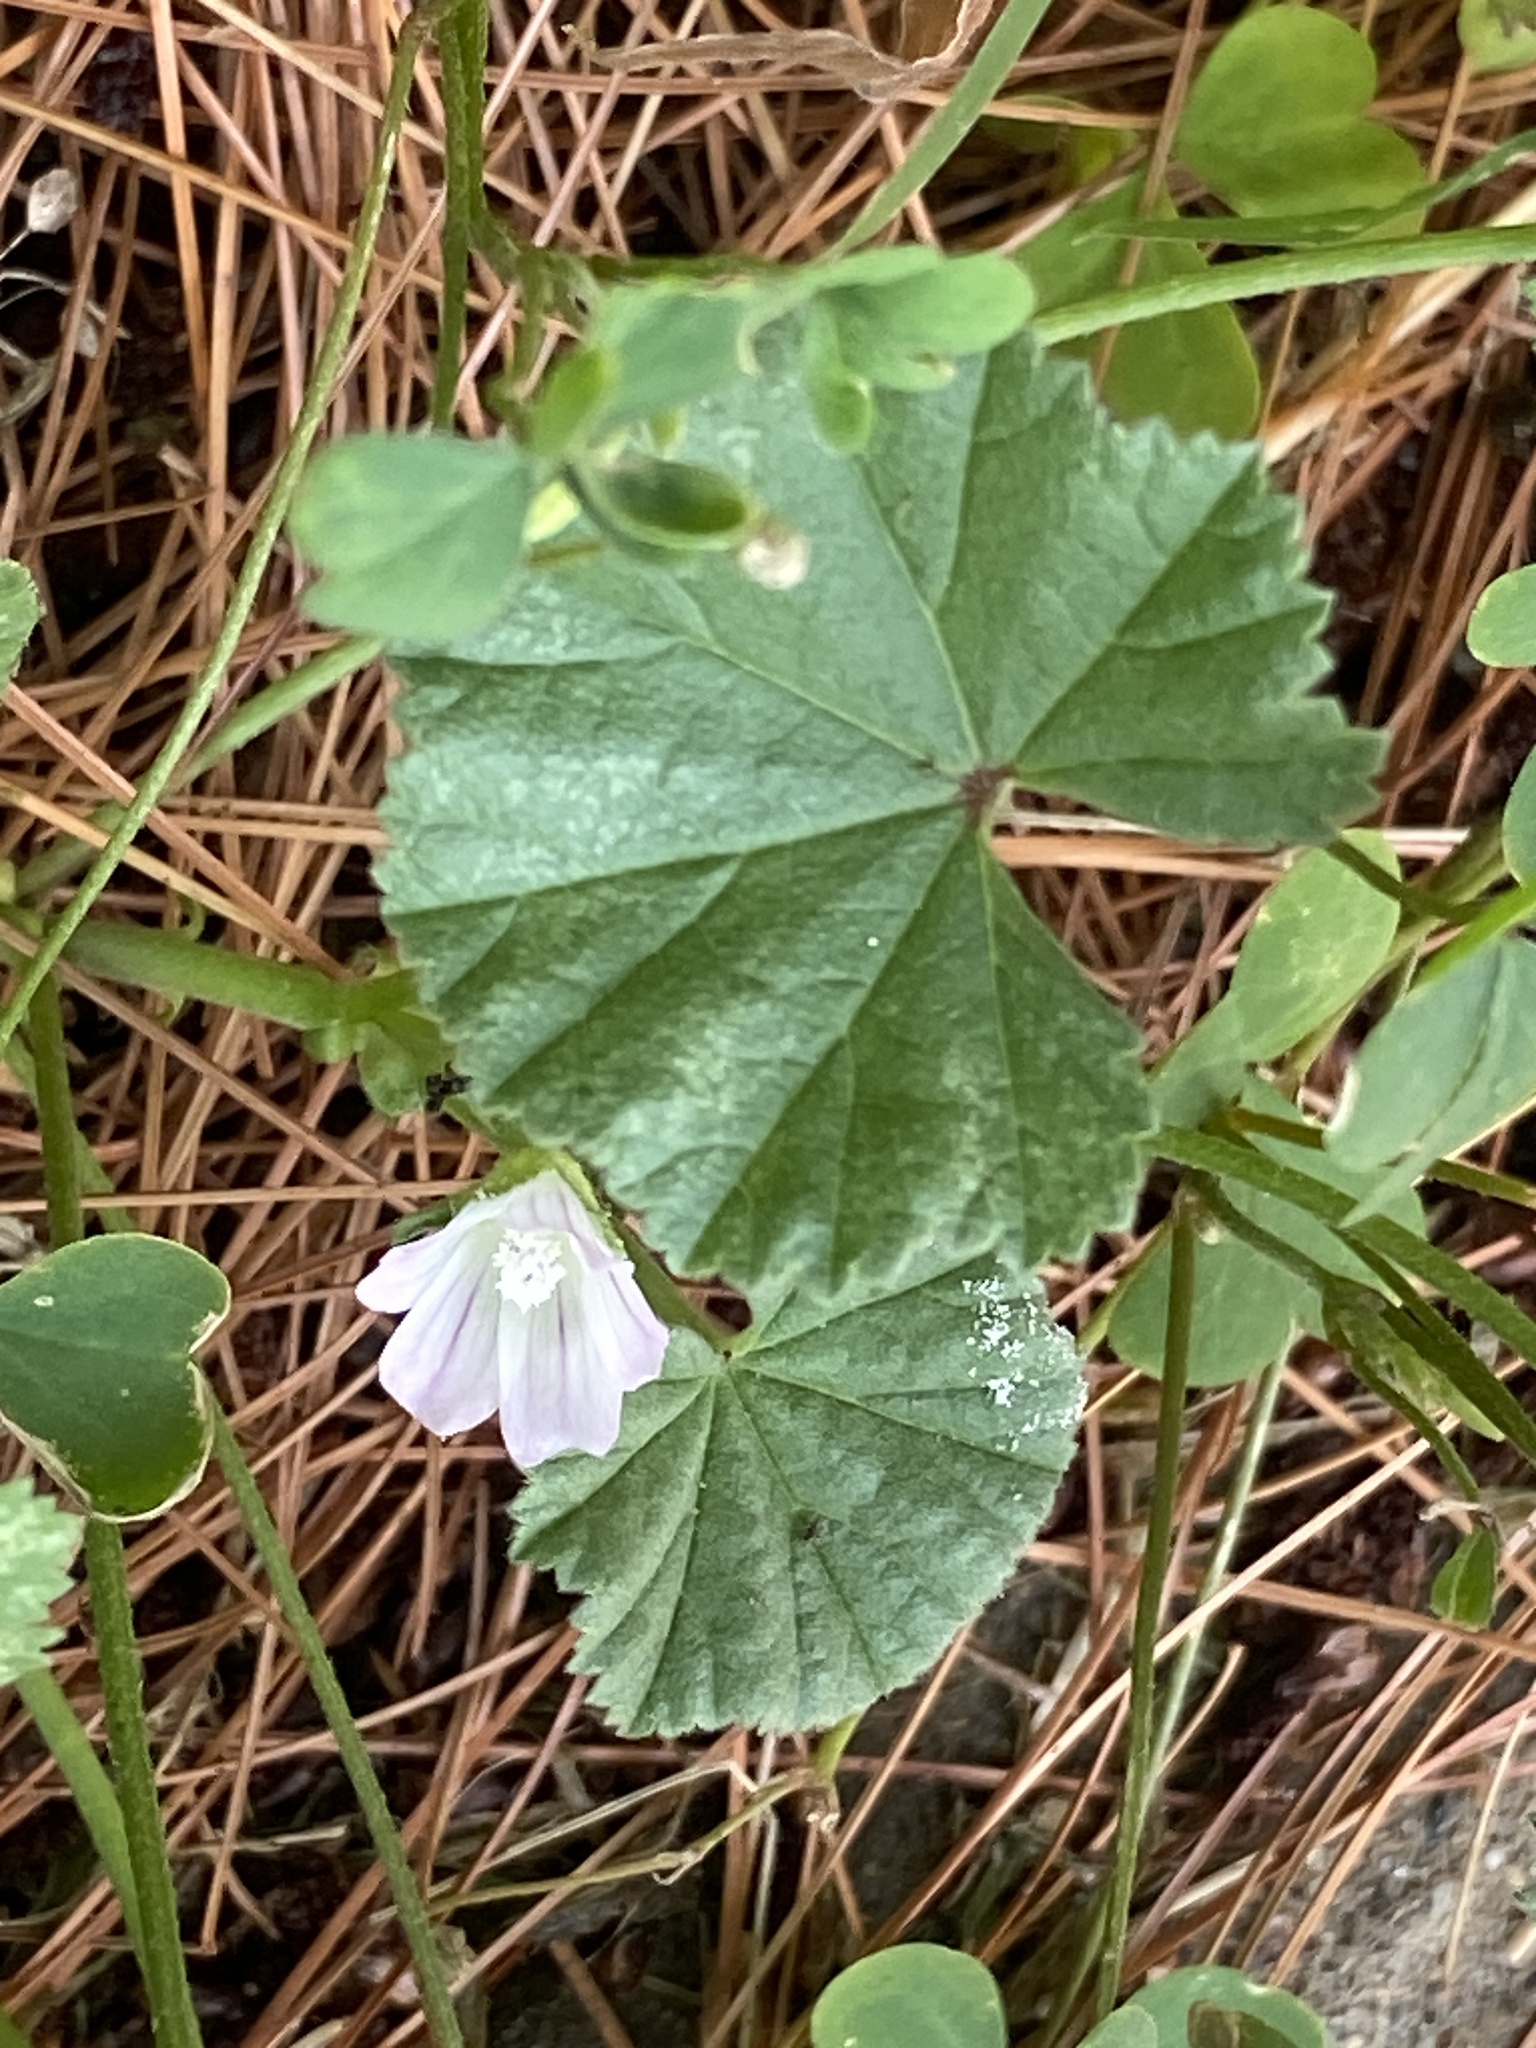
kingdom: Plantae
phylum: Tracheophyta
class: Magnoliopsida
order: Malvales
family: Malvaceae
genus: Malva
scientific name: Malva neglecta
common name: Common mallow
